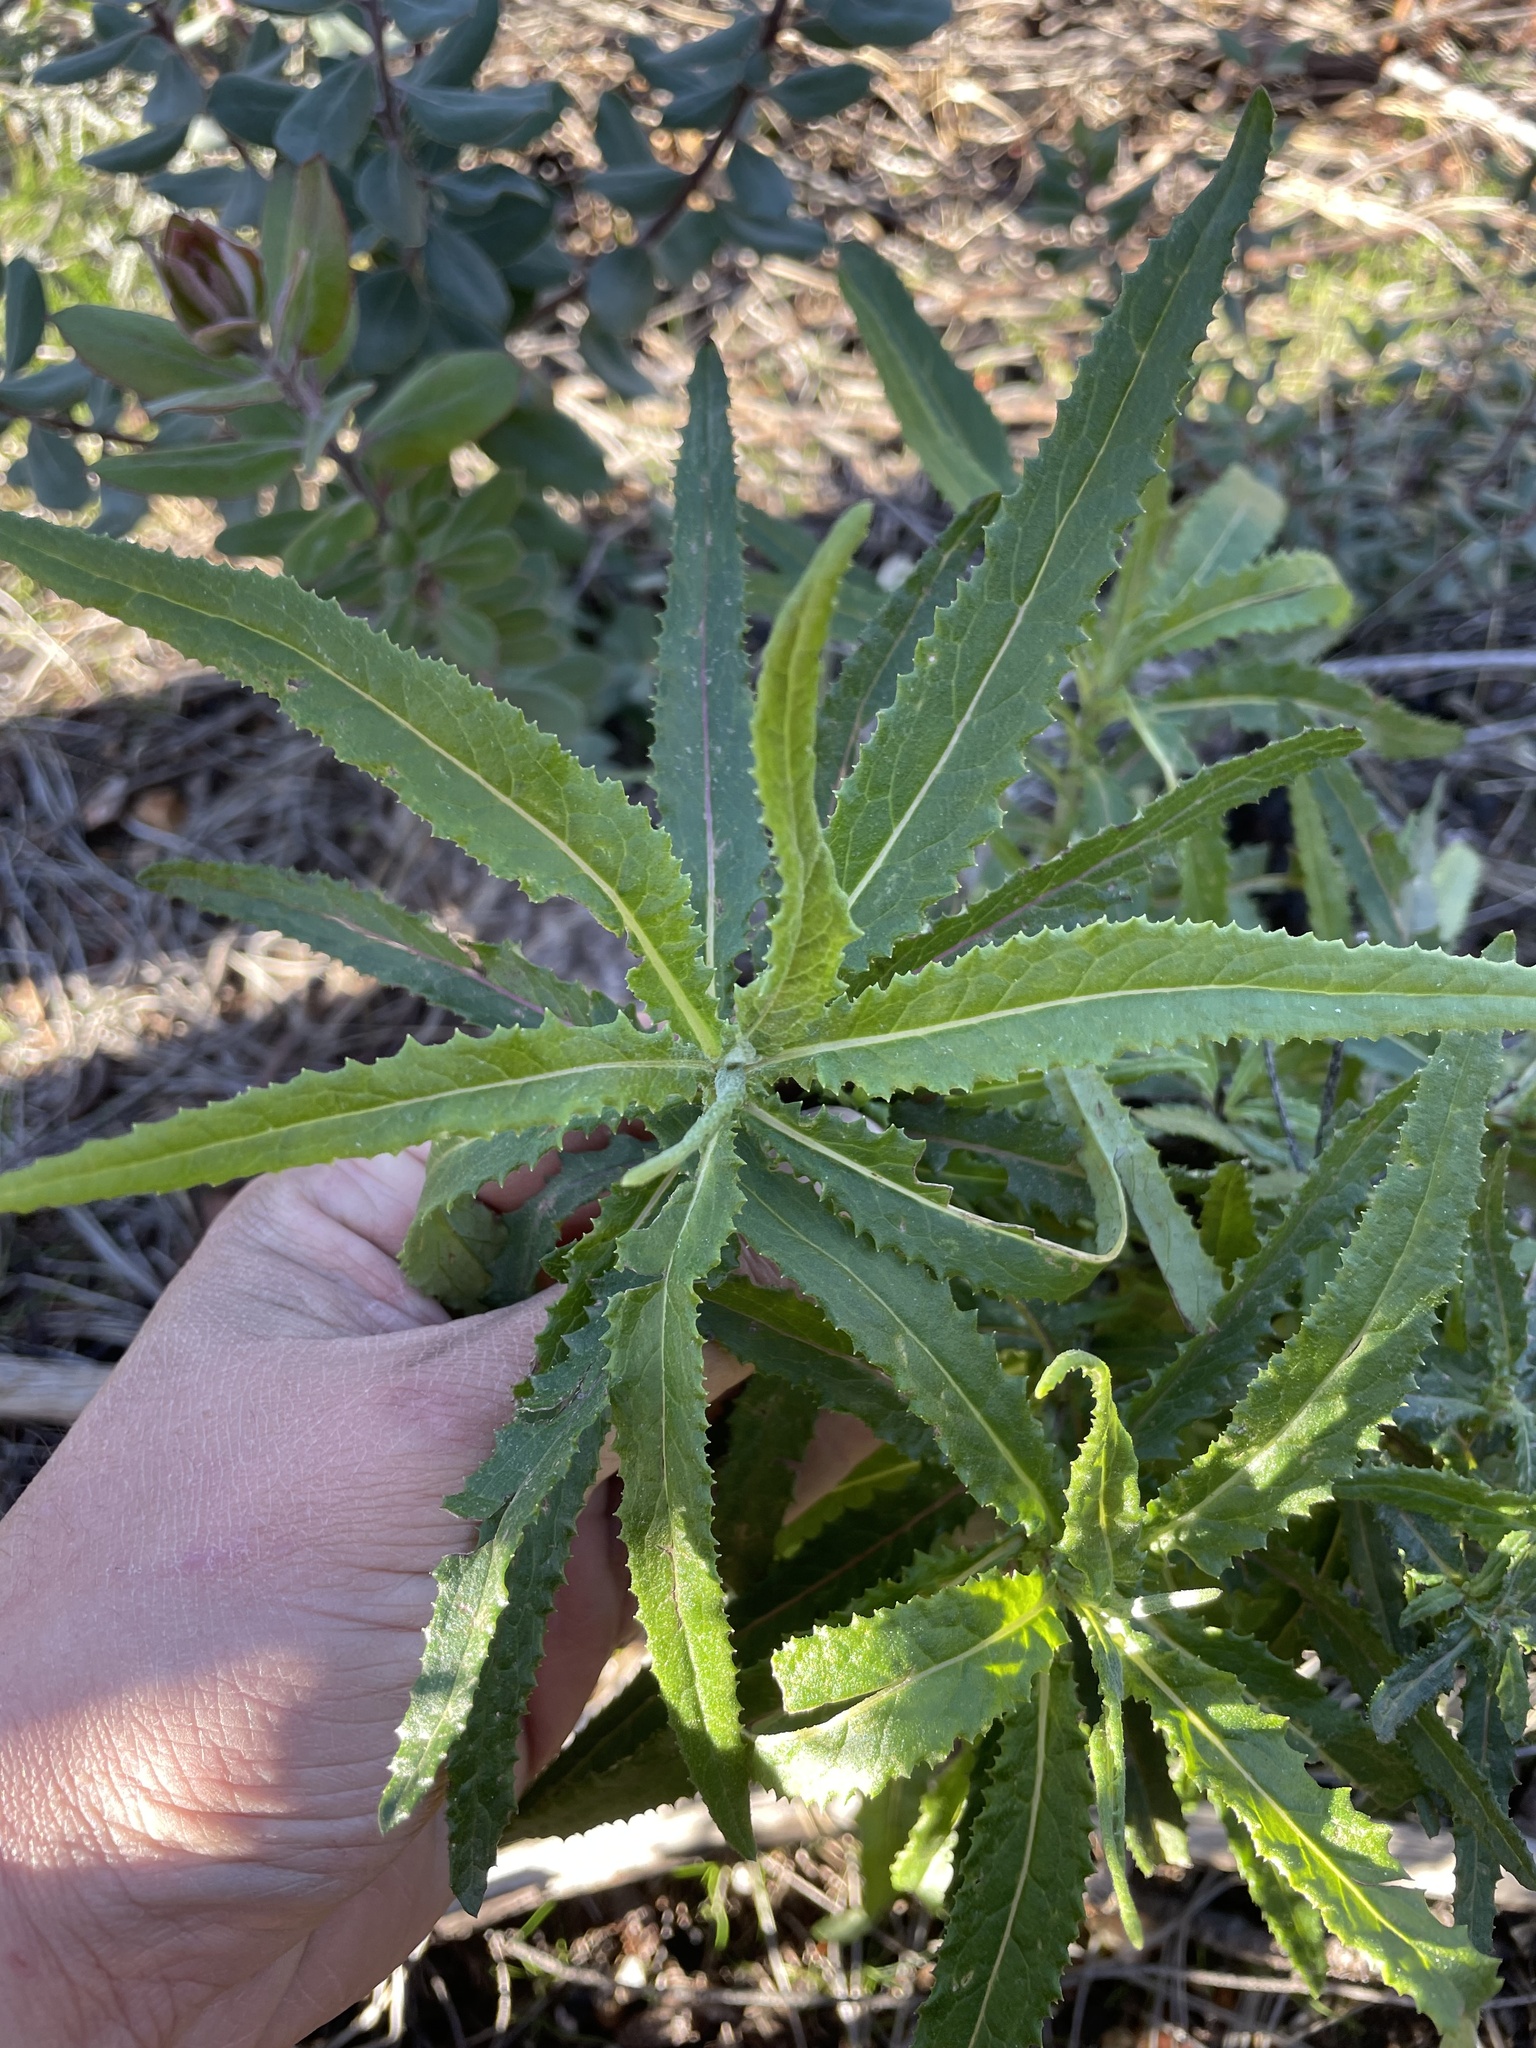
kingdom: Plantae
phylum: Tracheophyta
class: Magnoliopsida
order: Boraginales
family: Namaceae
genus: Eriodictyon
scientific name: Eriodictyon californicum
